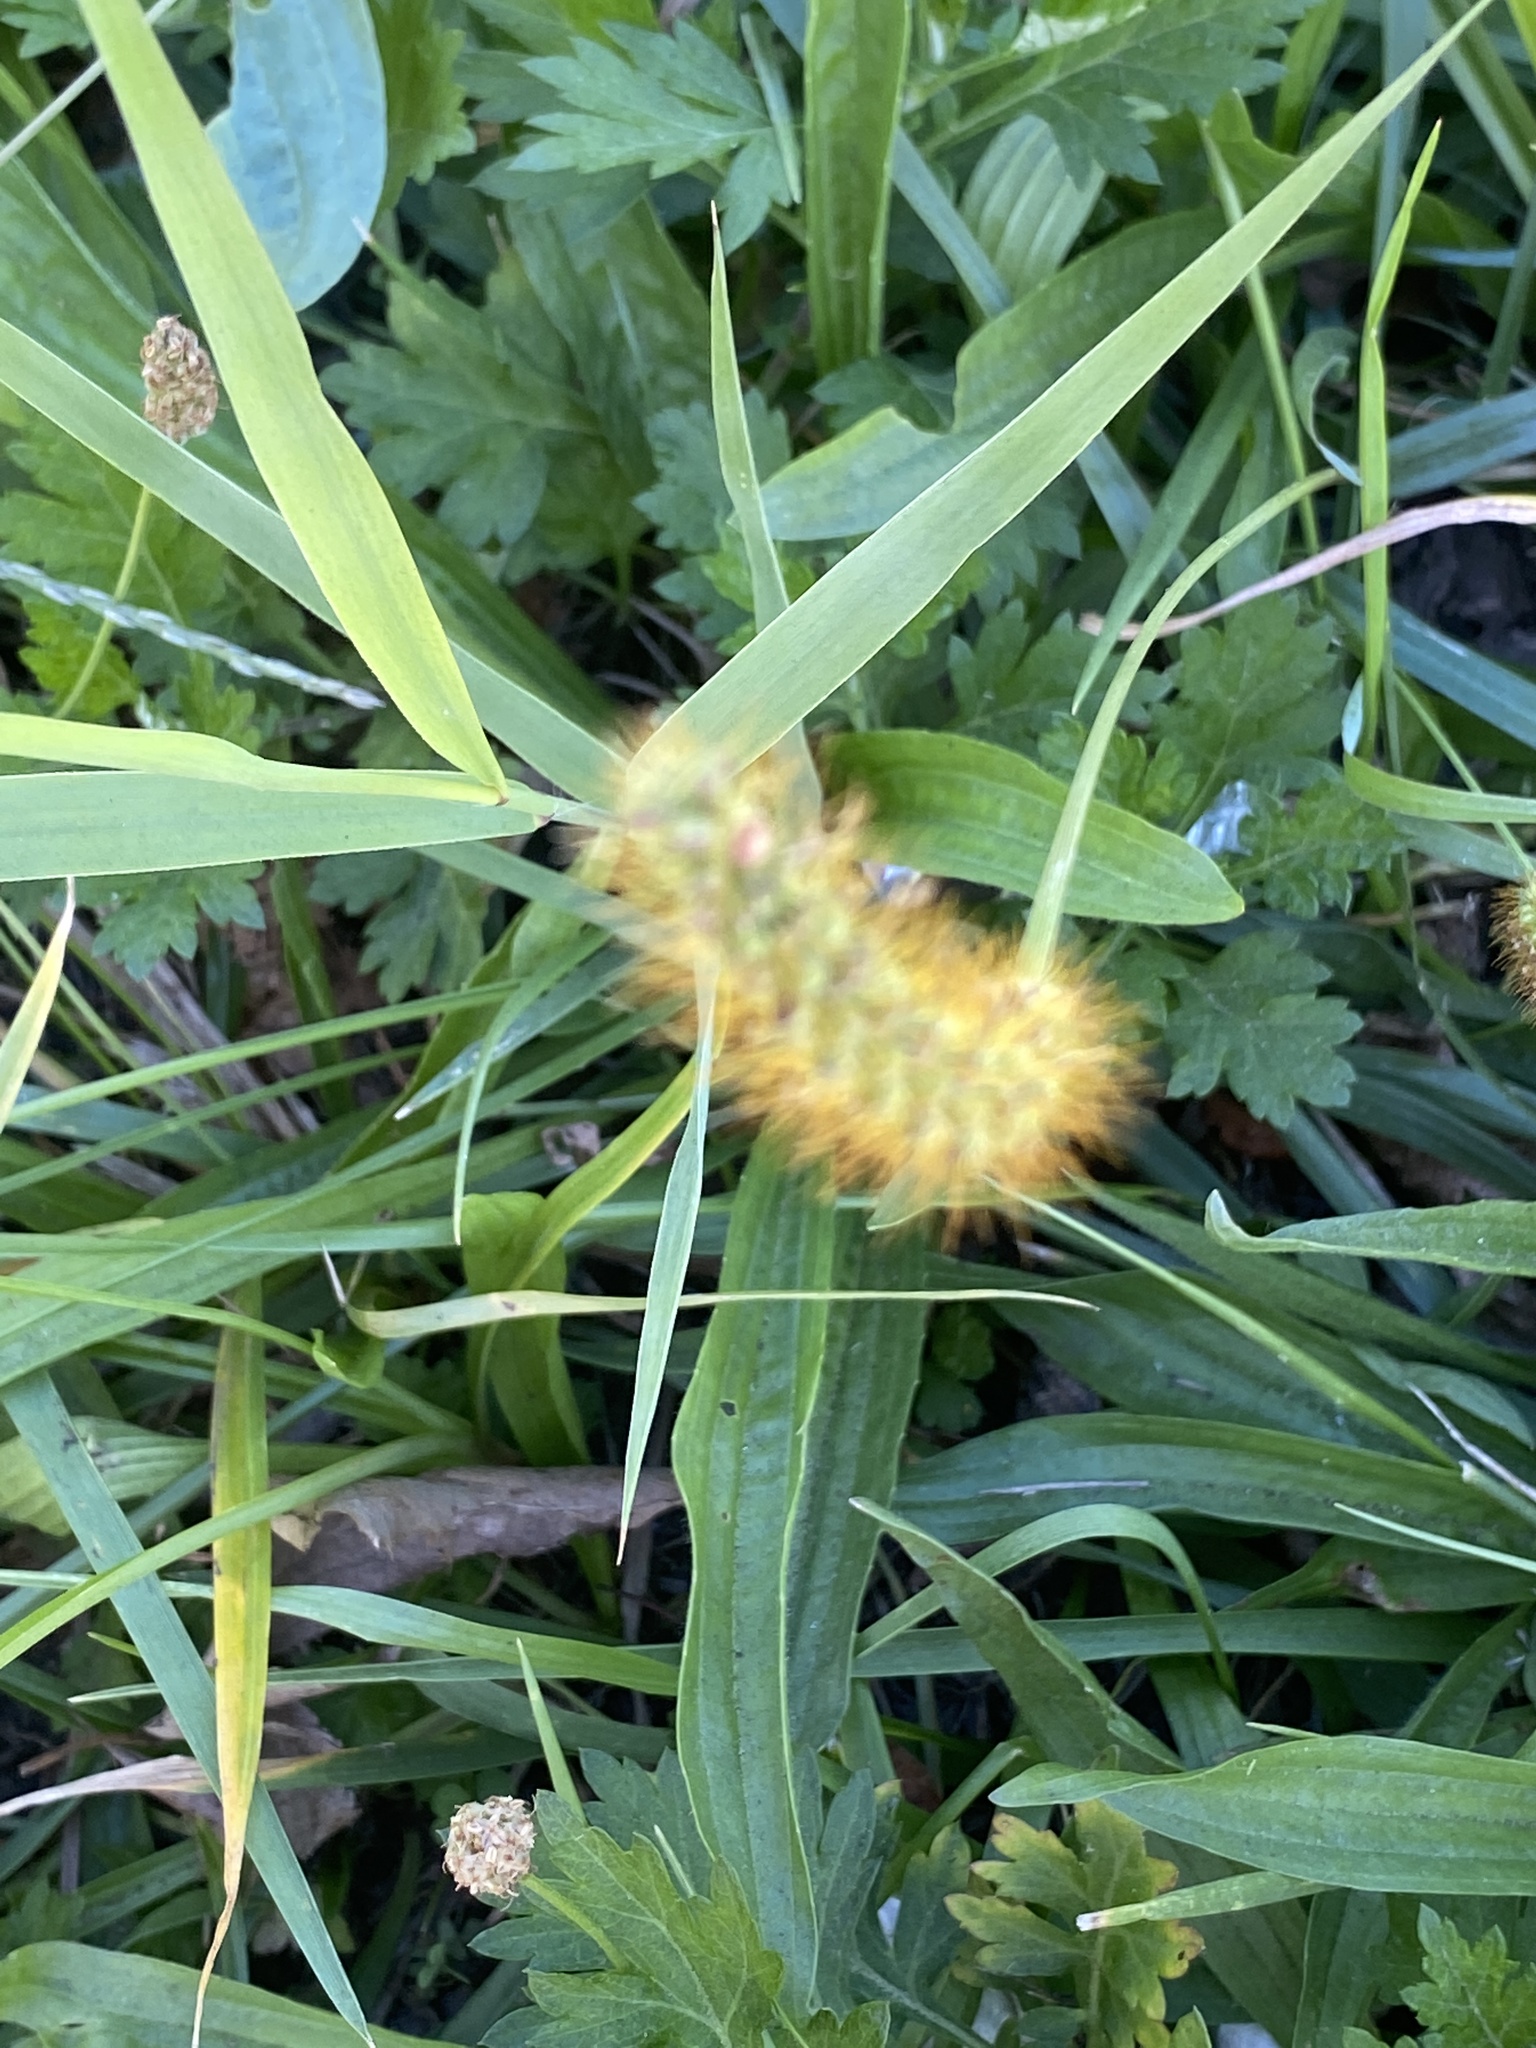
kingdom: Plantae
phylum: Tracheophyta
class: Liliopsida
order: Poales
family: Poaceae
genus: Setaria
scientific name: Setaria pumila
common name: Yellow bristle-grass
